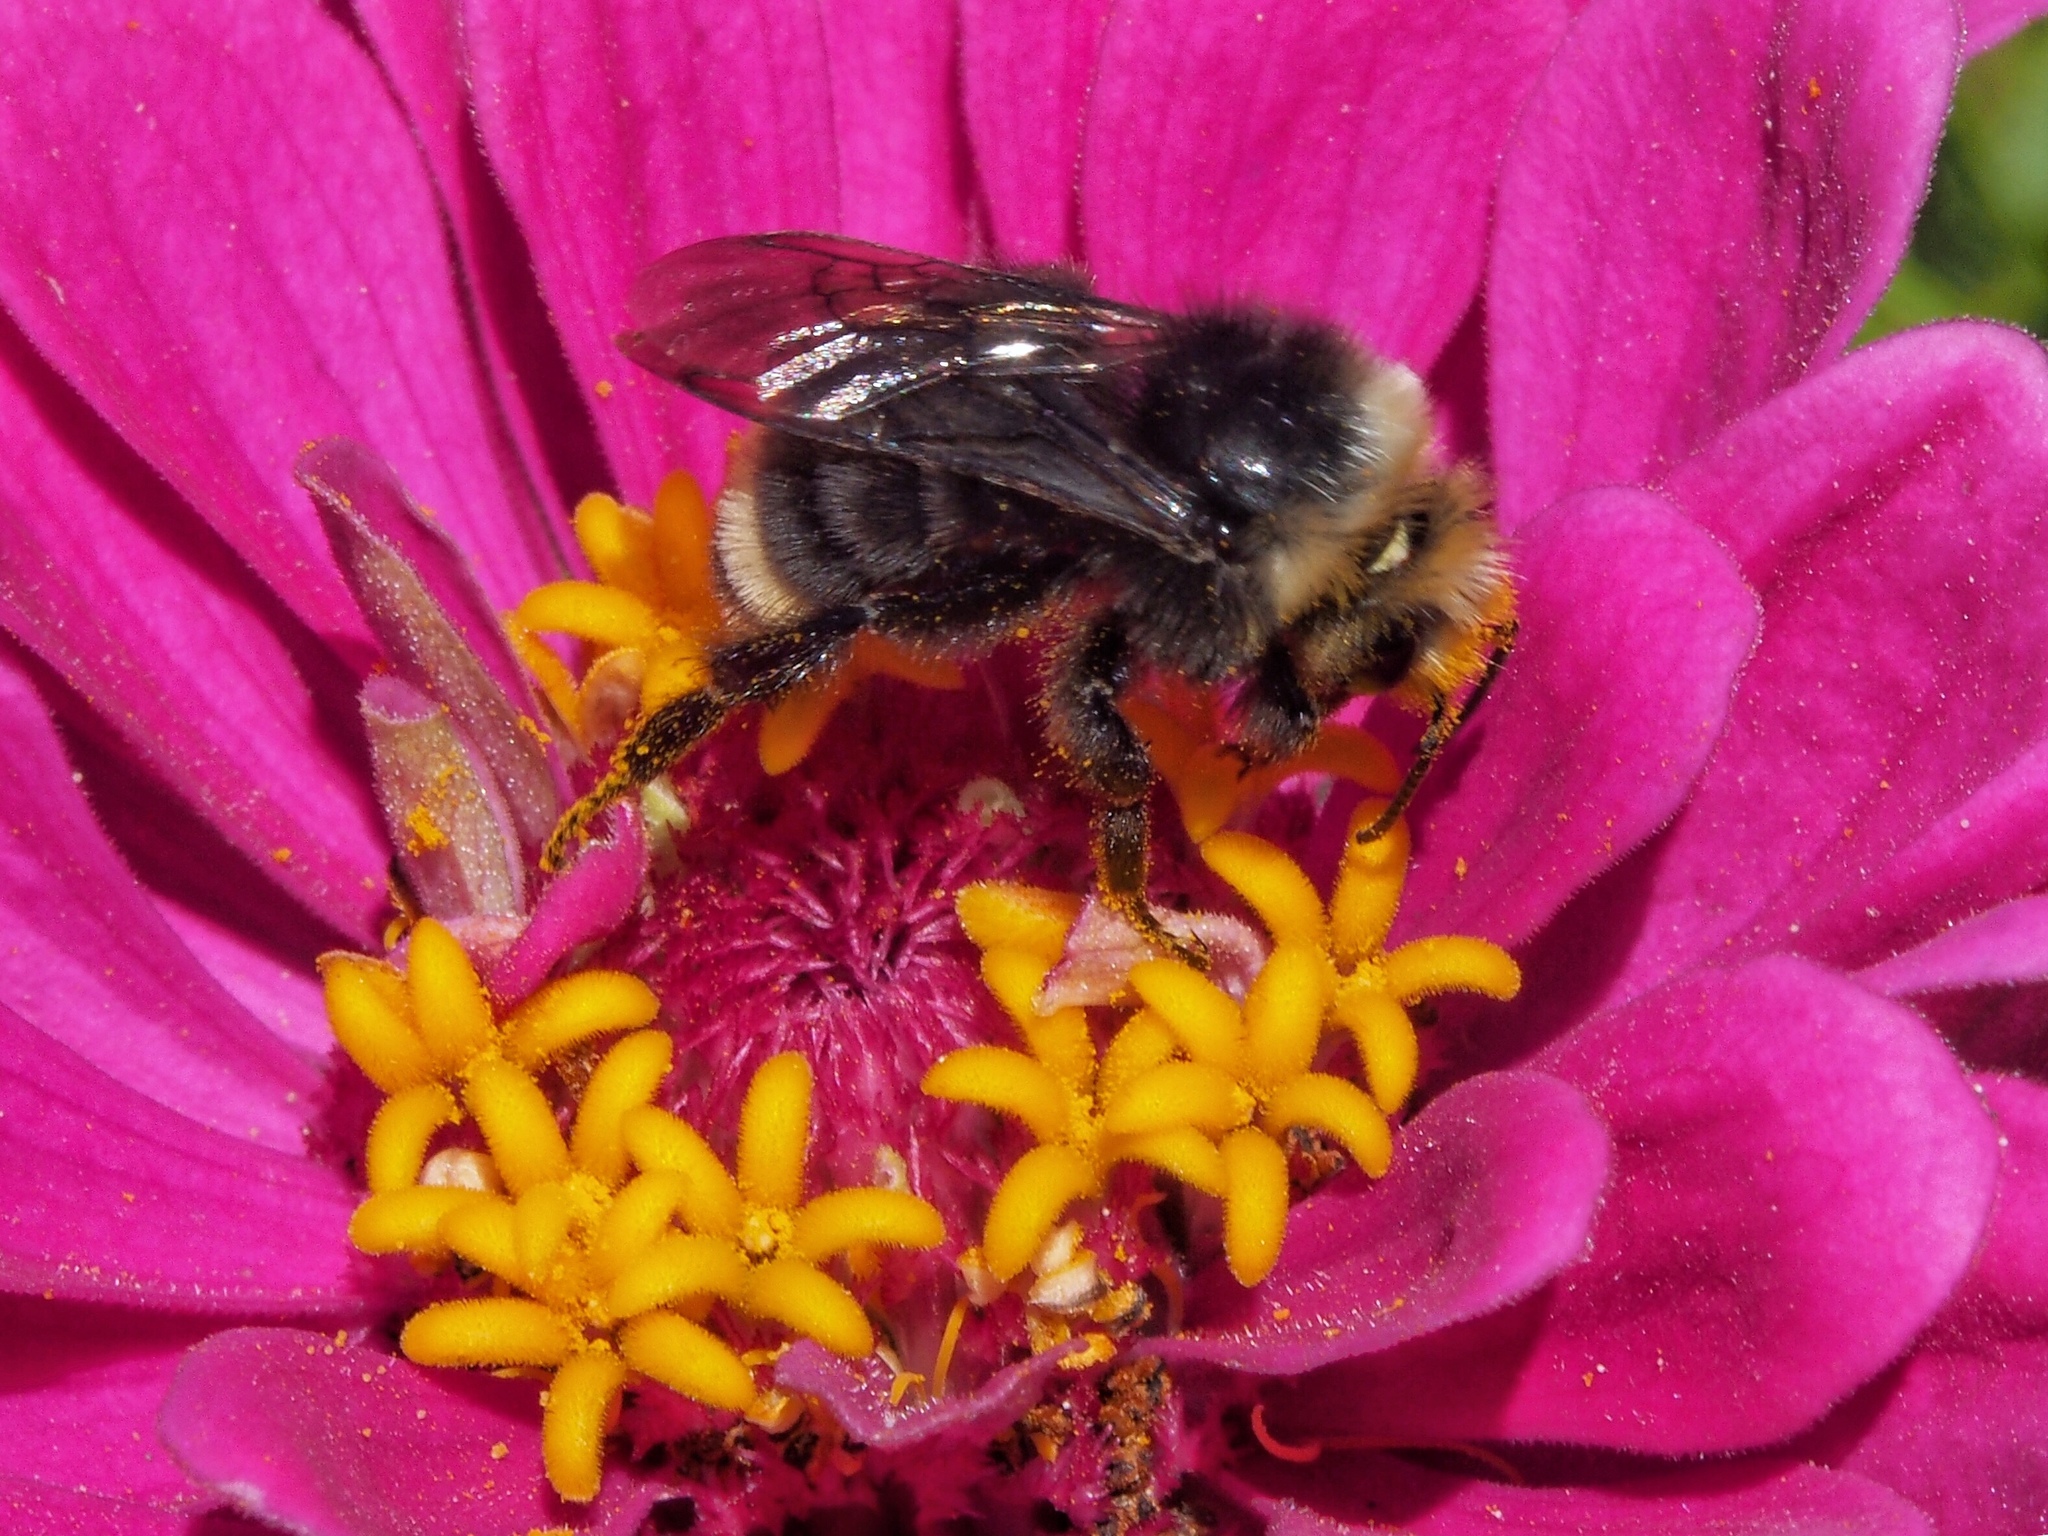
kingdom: Animalia
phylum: Arthropoda
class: Insecta
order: Hymenoptera
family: Apidae
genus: Bombus
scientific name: Bombus vosnesenskii
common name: Vosnesensky bumble bee
